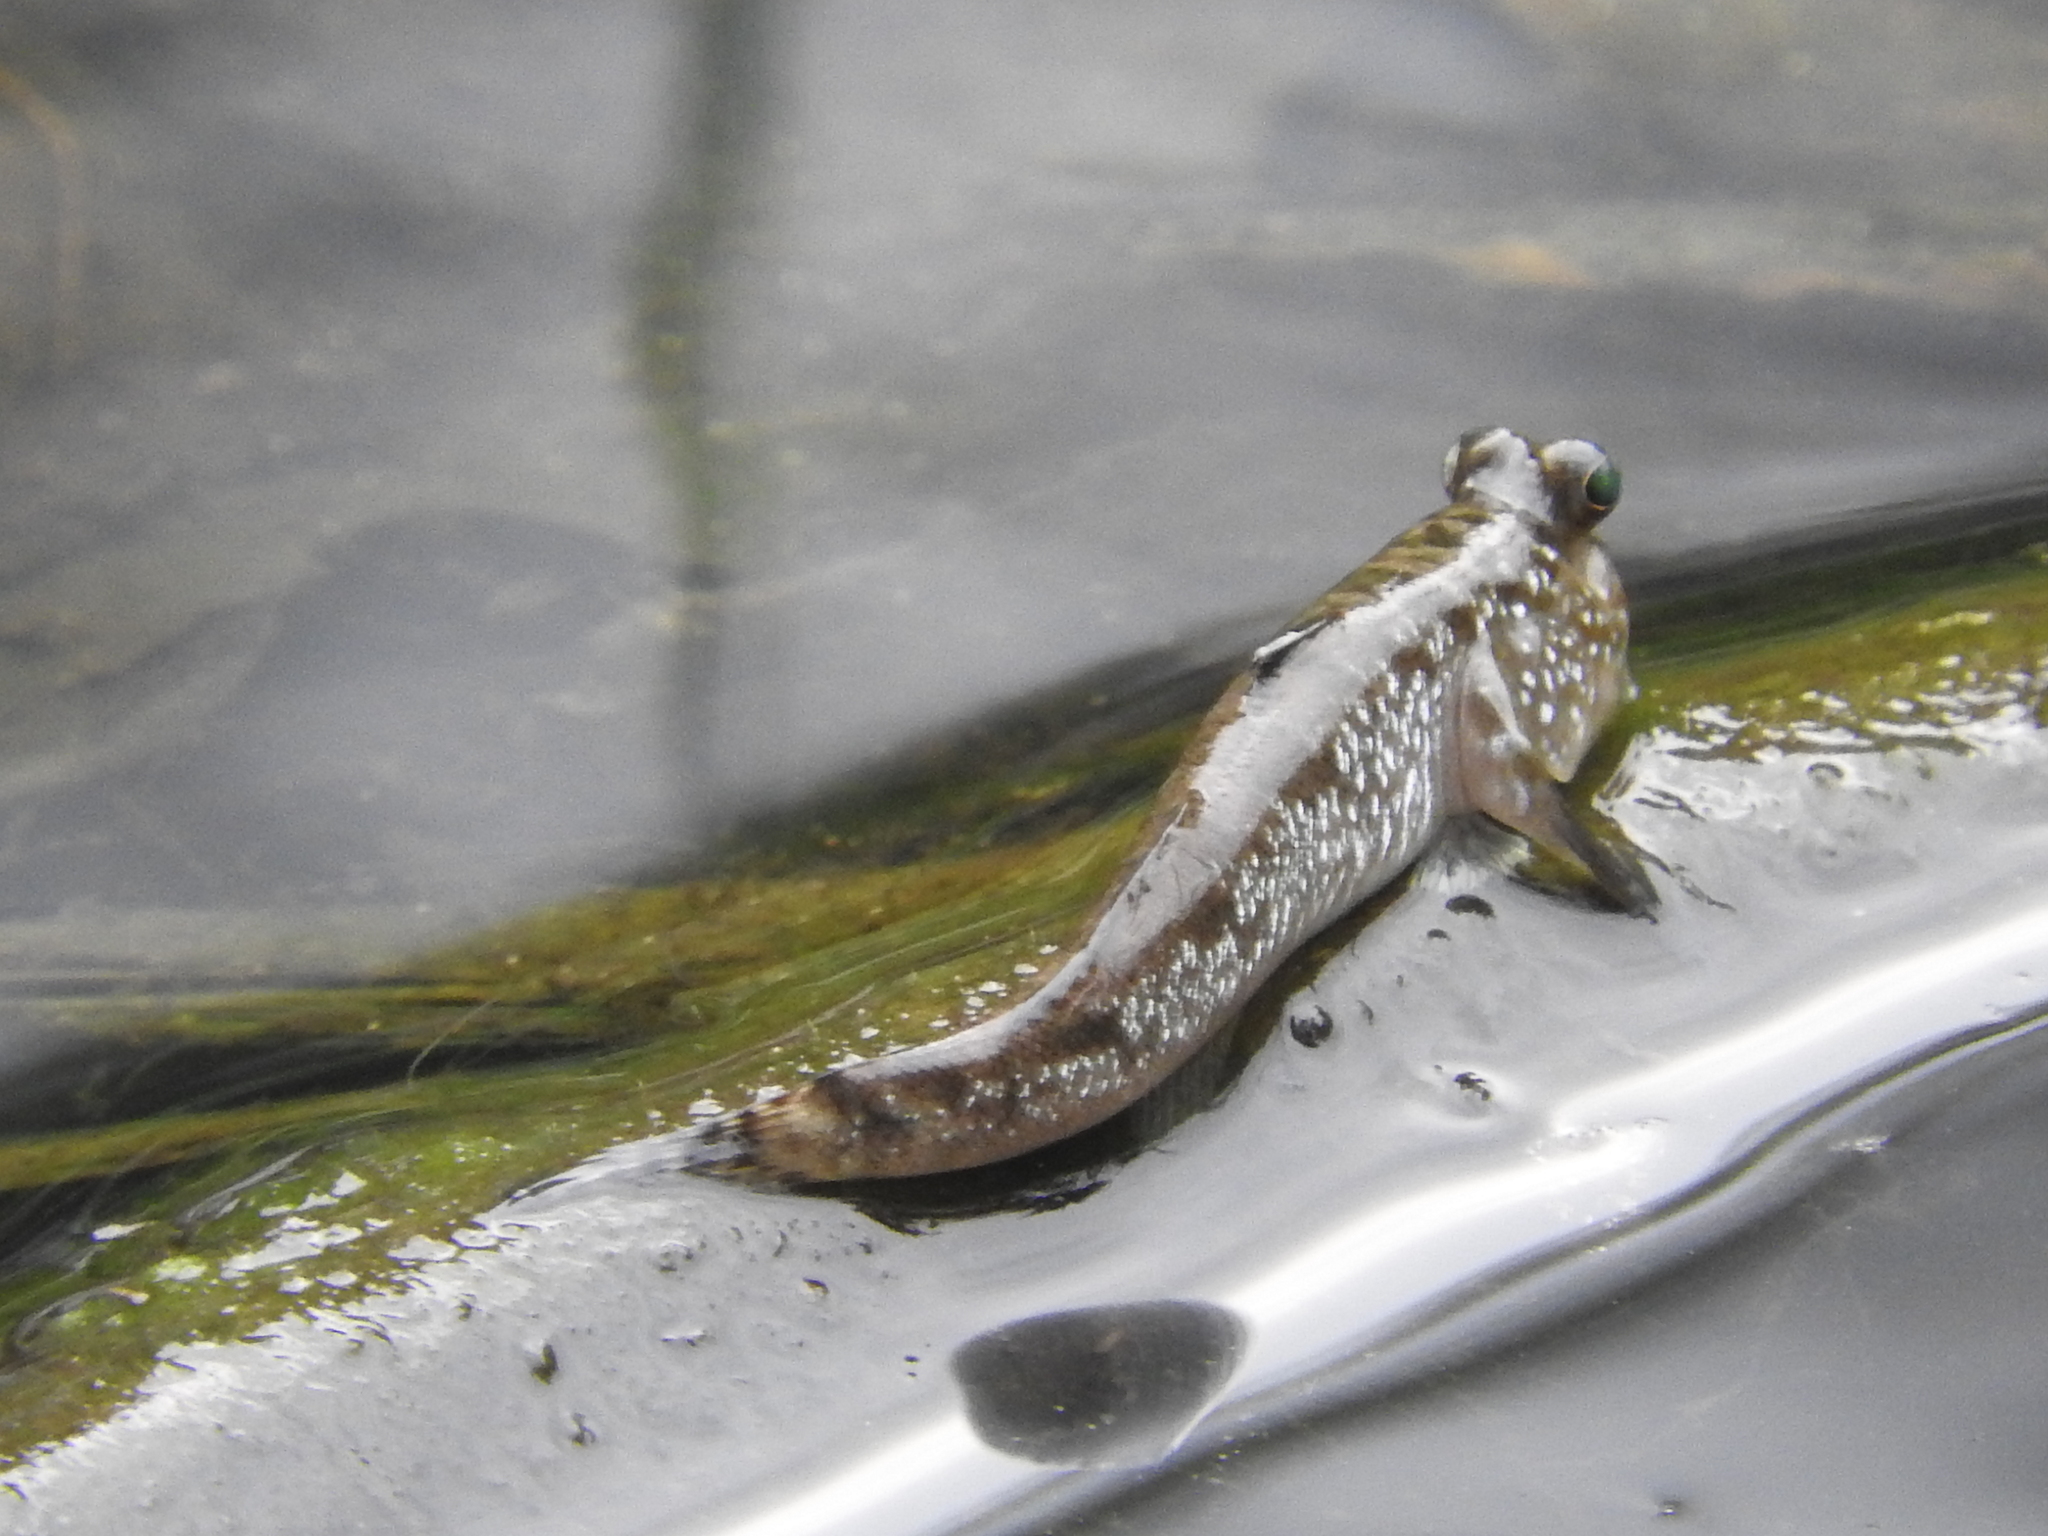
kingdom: Animalia
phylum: Chordata
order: Perciformes
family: Gobiidae
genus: Periophthalmus
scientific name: Periophthalmus barbarus
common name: Atlantic mudskipper
